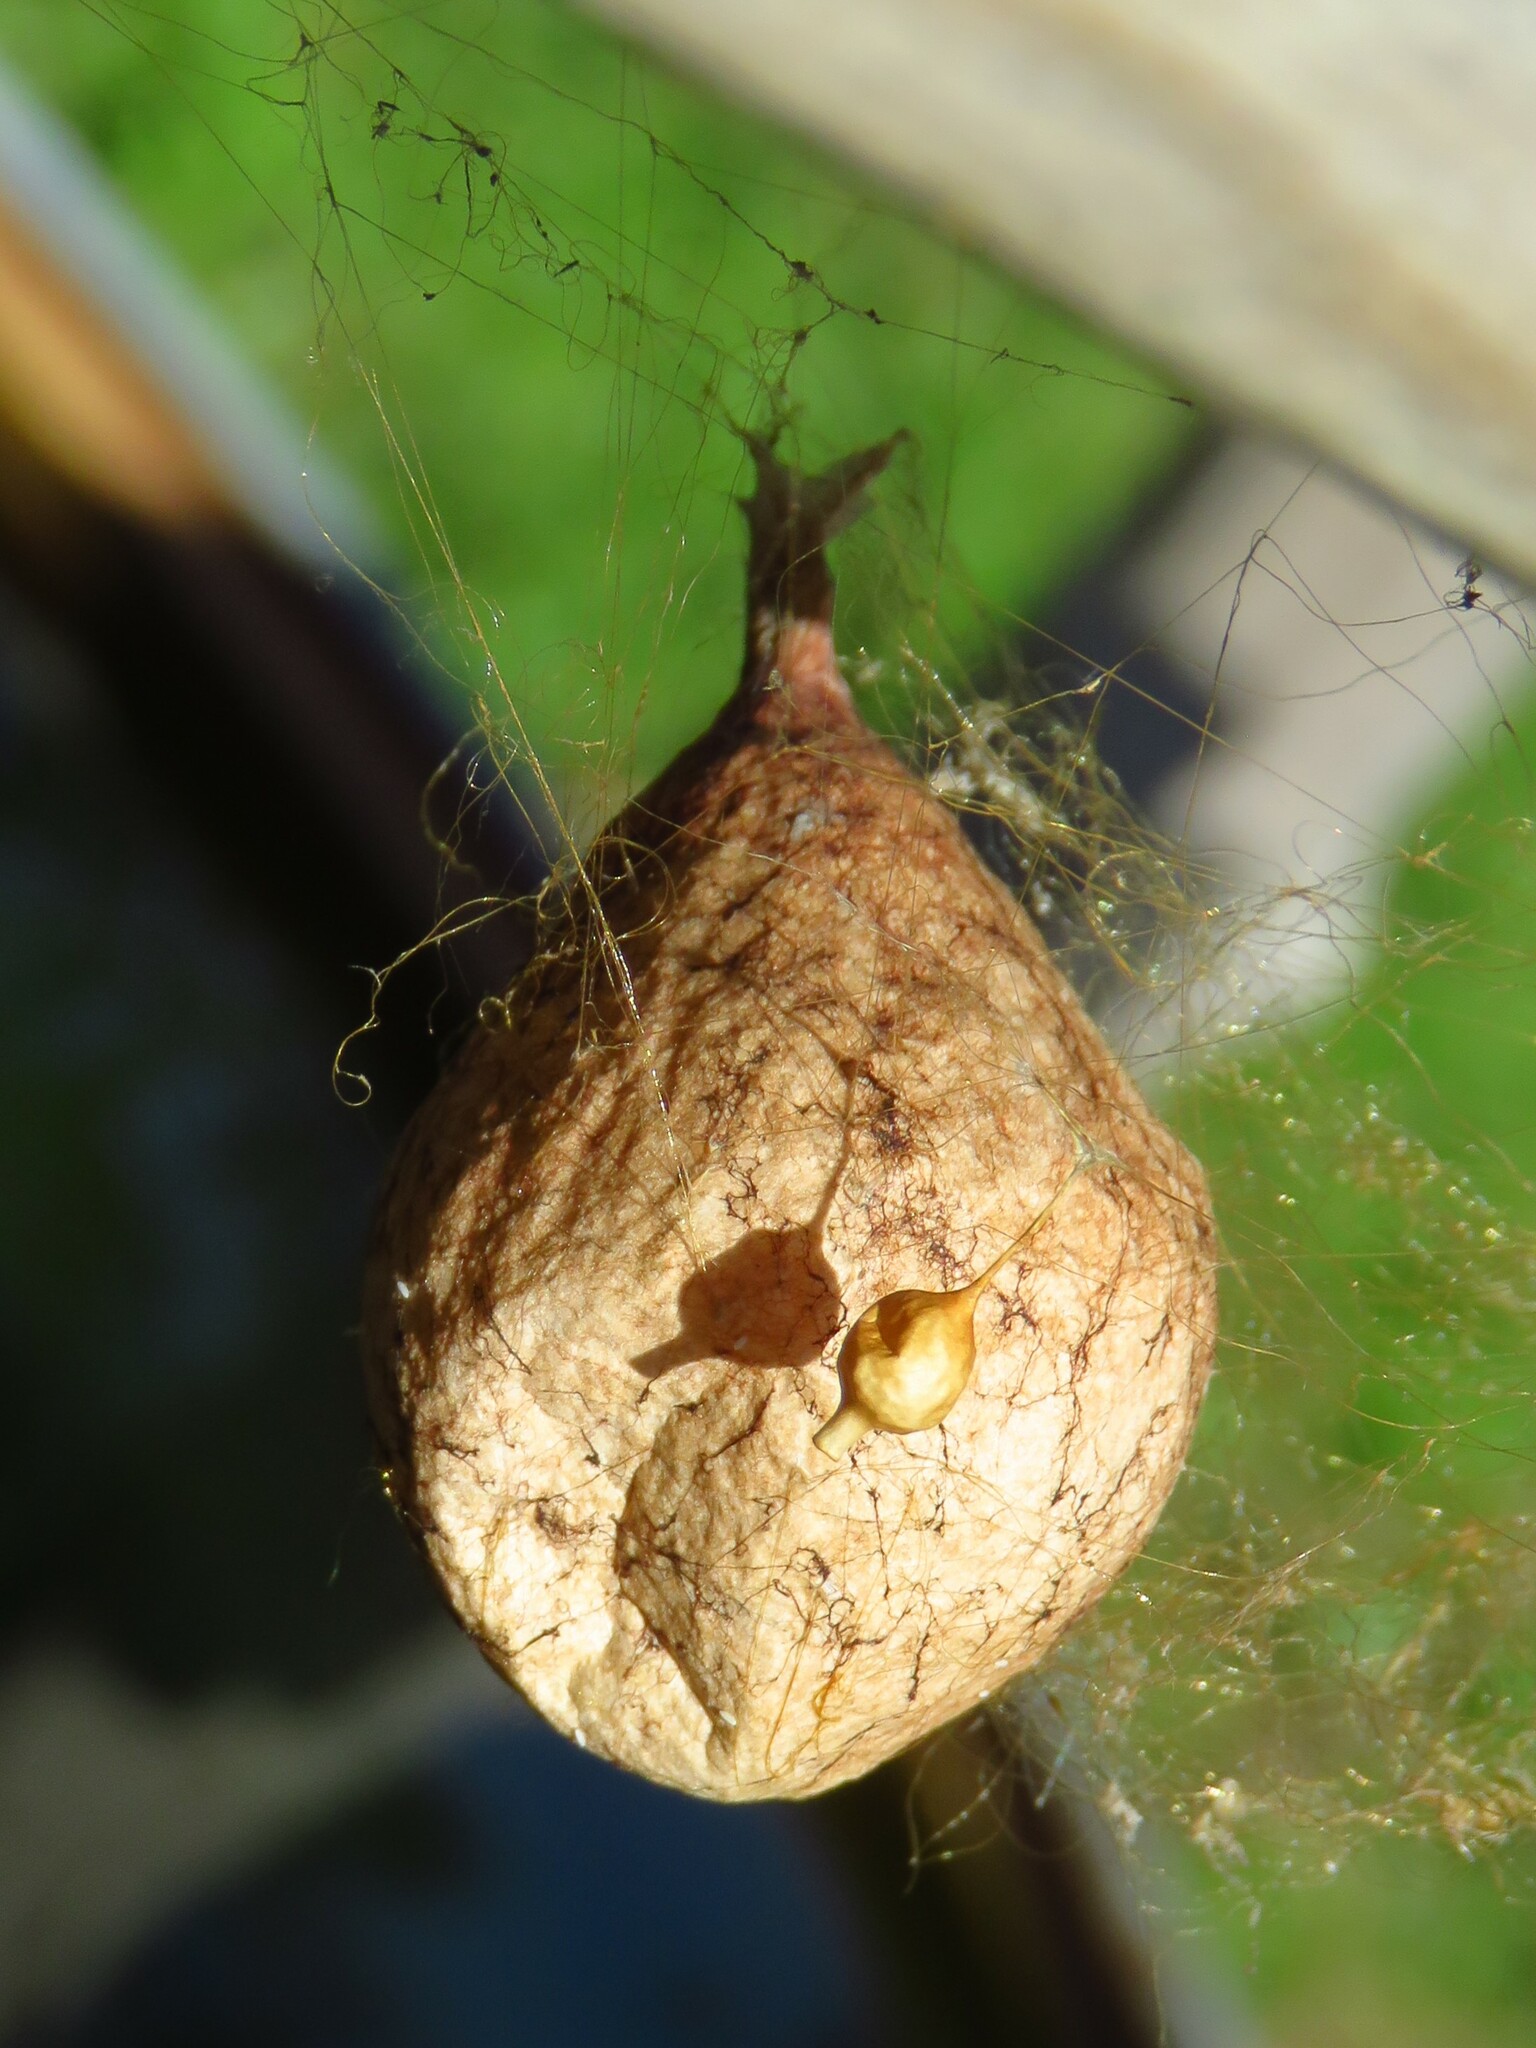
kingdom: Animalia
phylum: Arthropoda
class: Arachnida
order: Araneae
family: Araneidae
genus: Argiope
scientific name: Argiope aurantia
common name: Orb weavers
